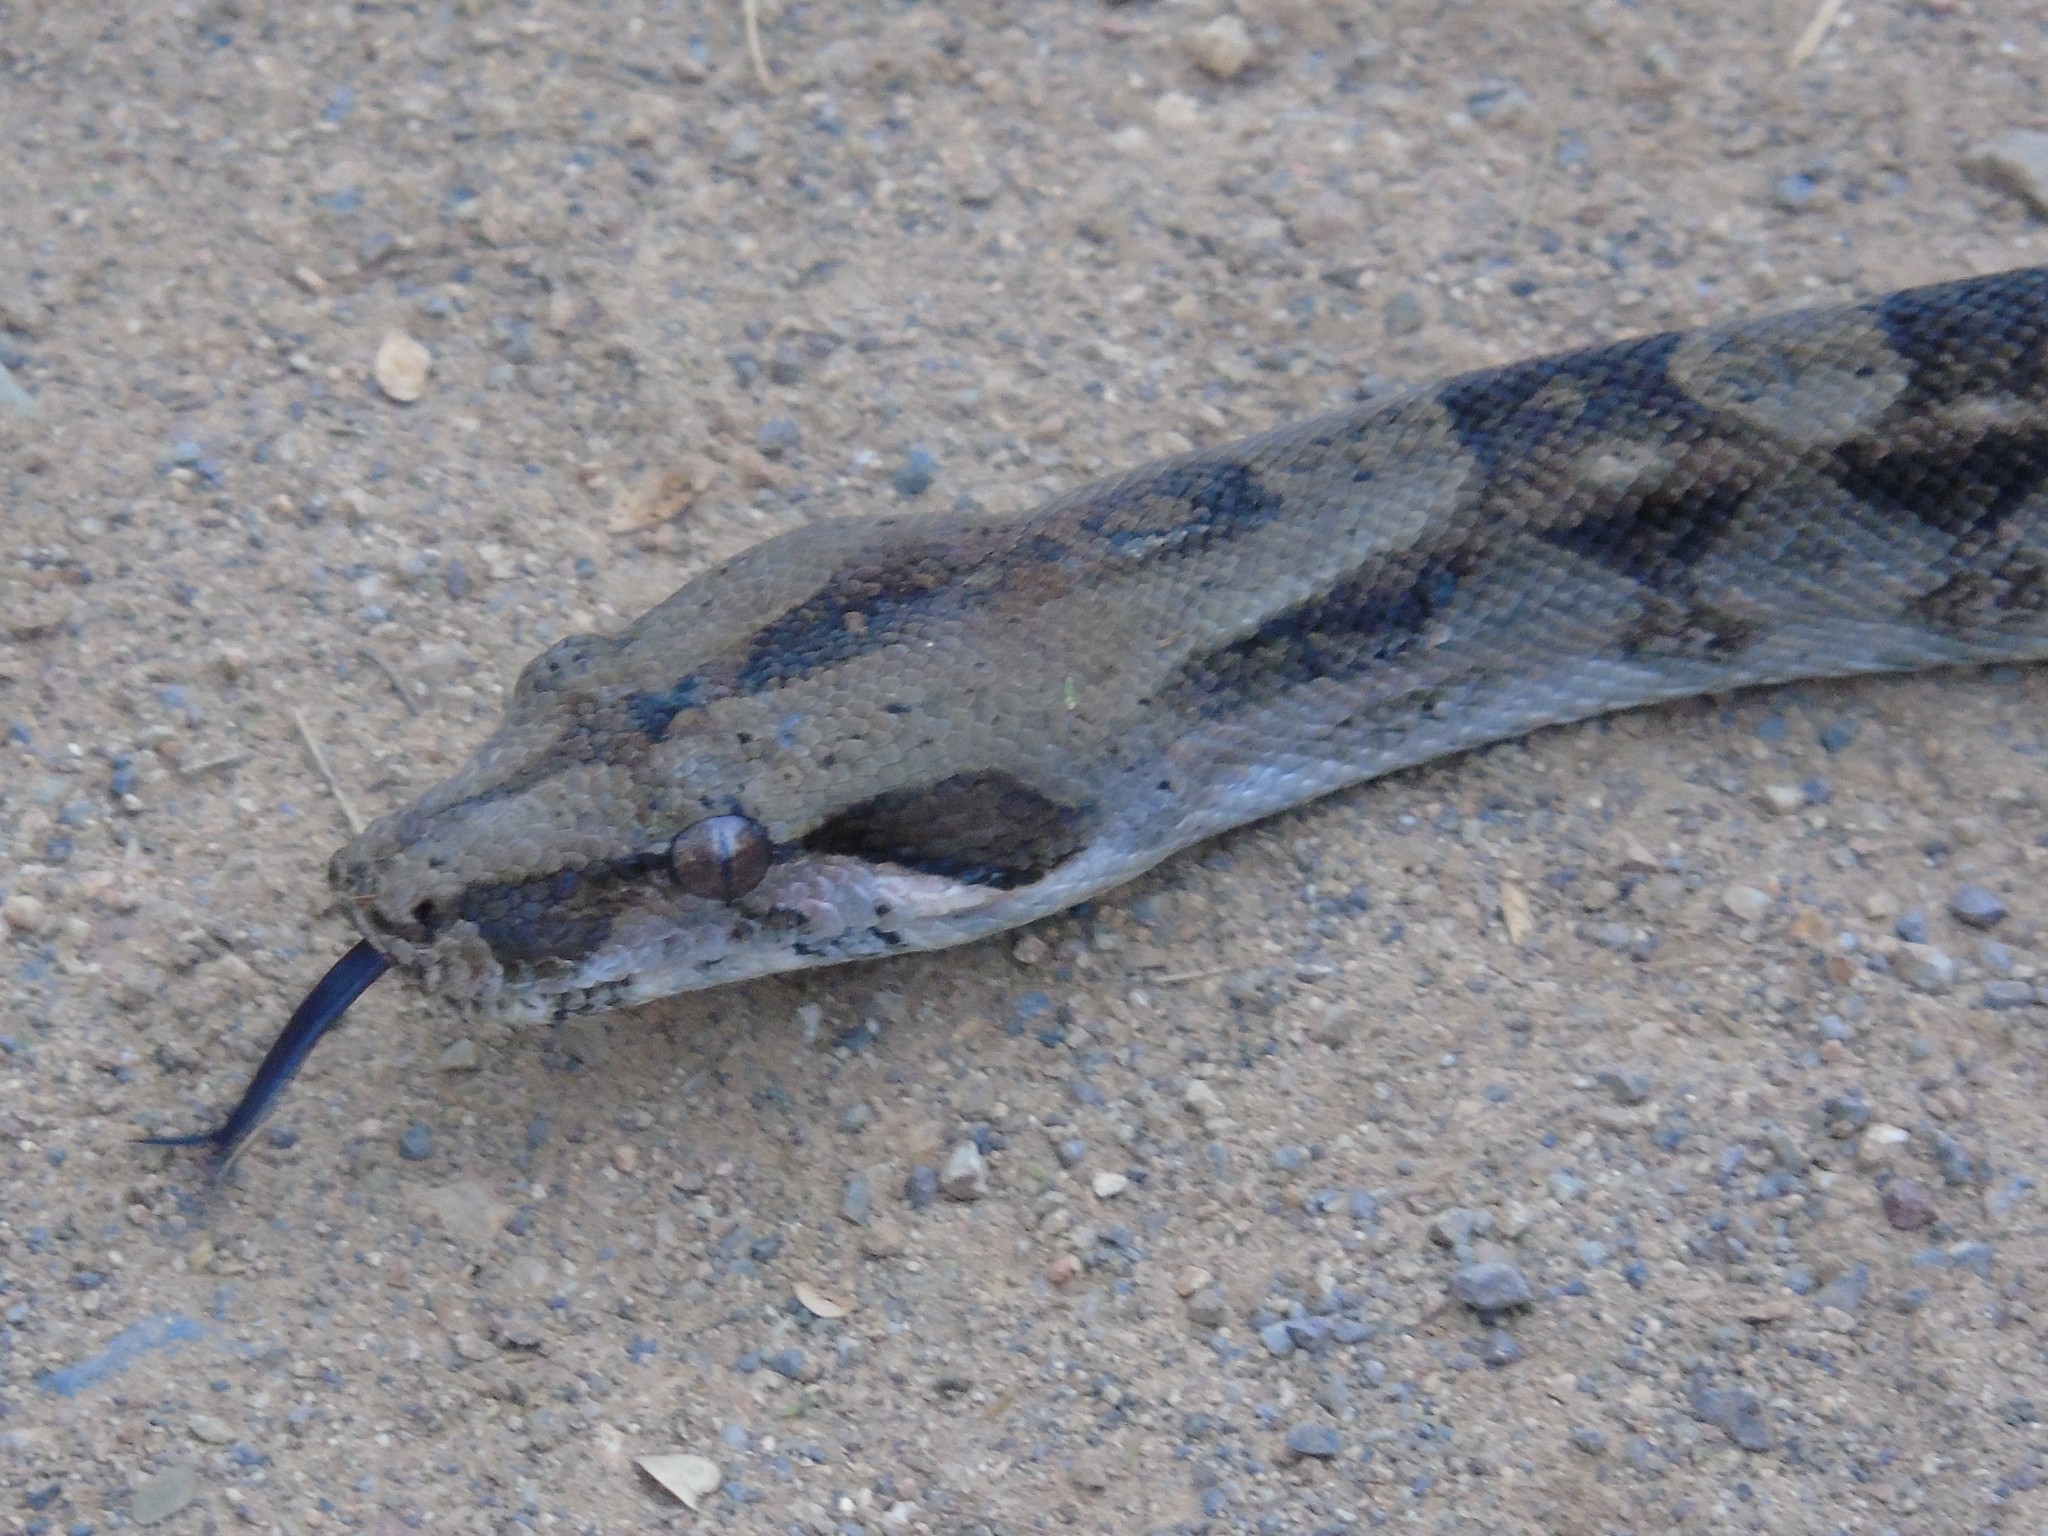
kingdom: Animalia
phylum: Chordata
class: Squamata
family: Boidae
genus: Boa
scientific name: Boa
